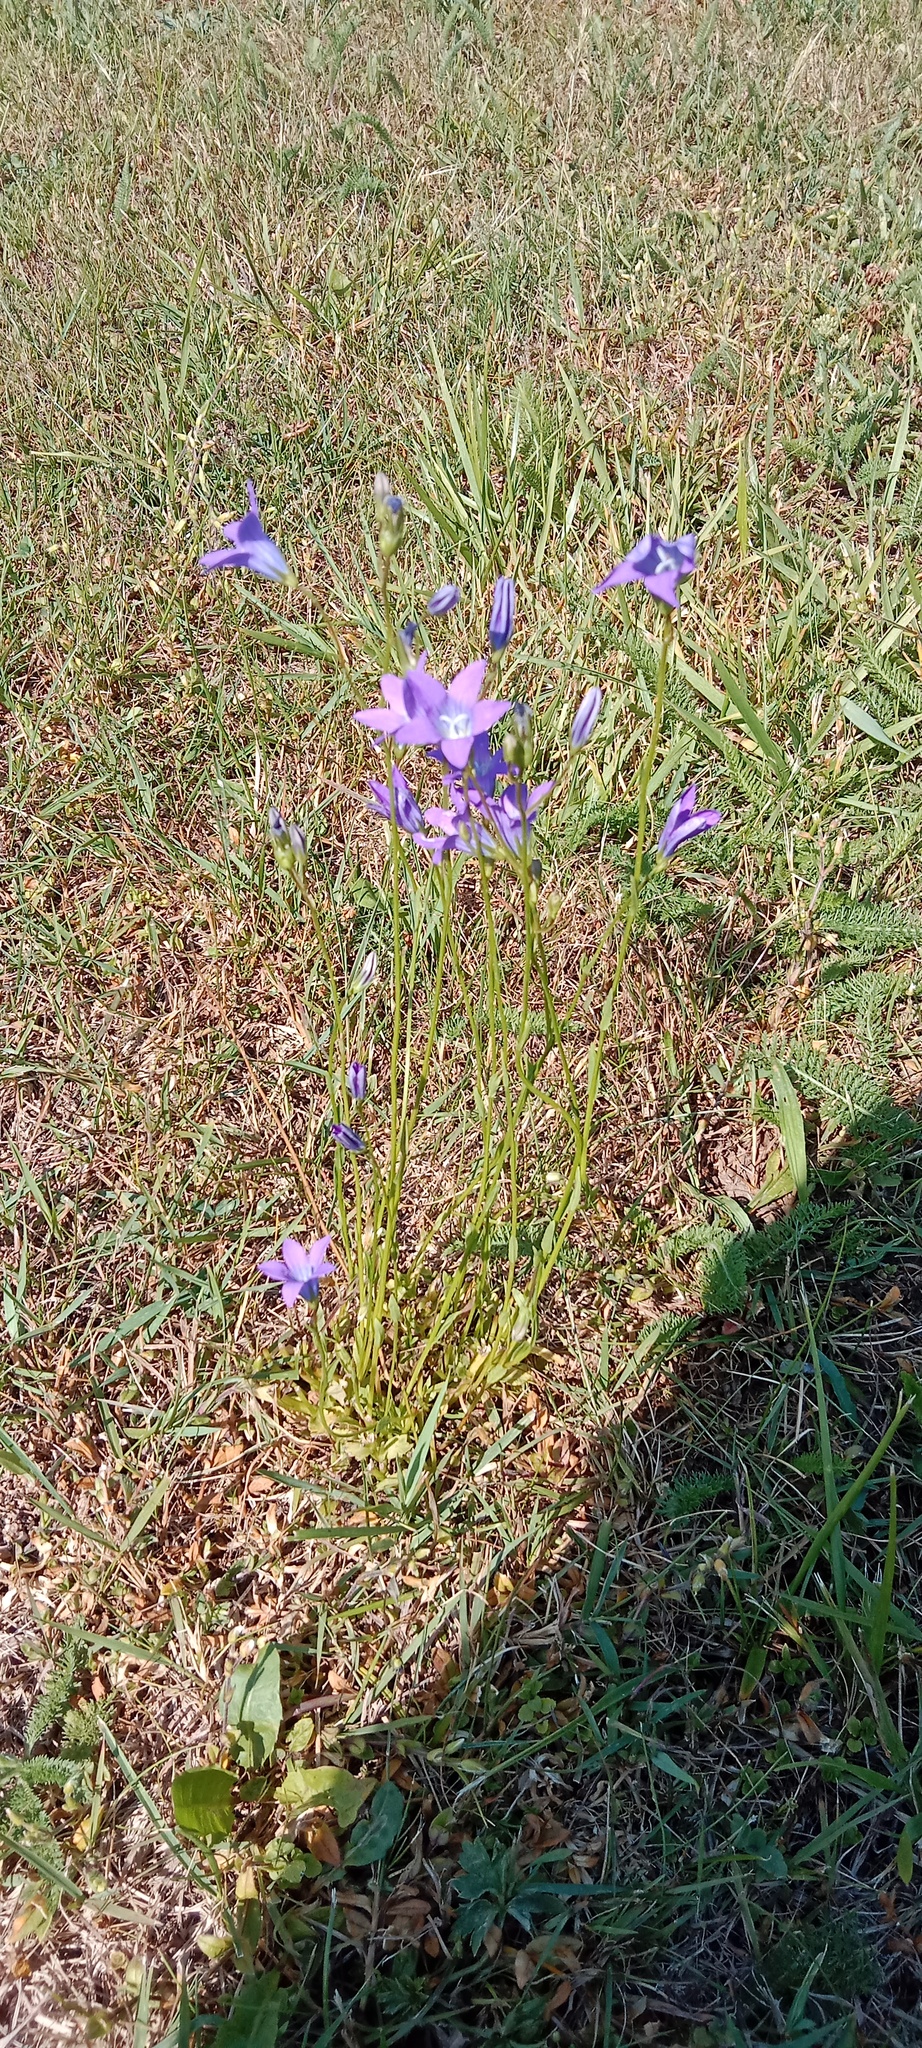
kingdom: Plantae
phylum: Tracheophyta
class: Magnoliopsida
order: Asterales
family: Campanulaceae
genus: Campanula
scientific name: Campanula patula
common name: Spreading bellflower
